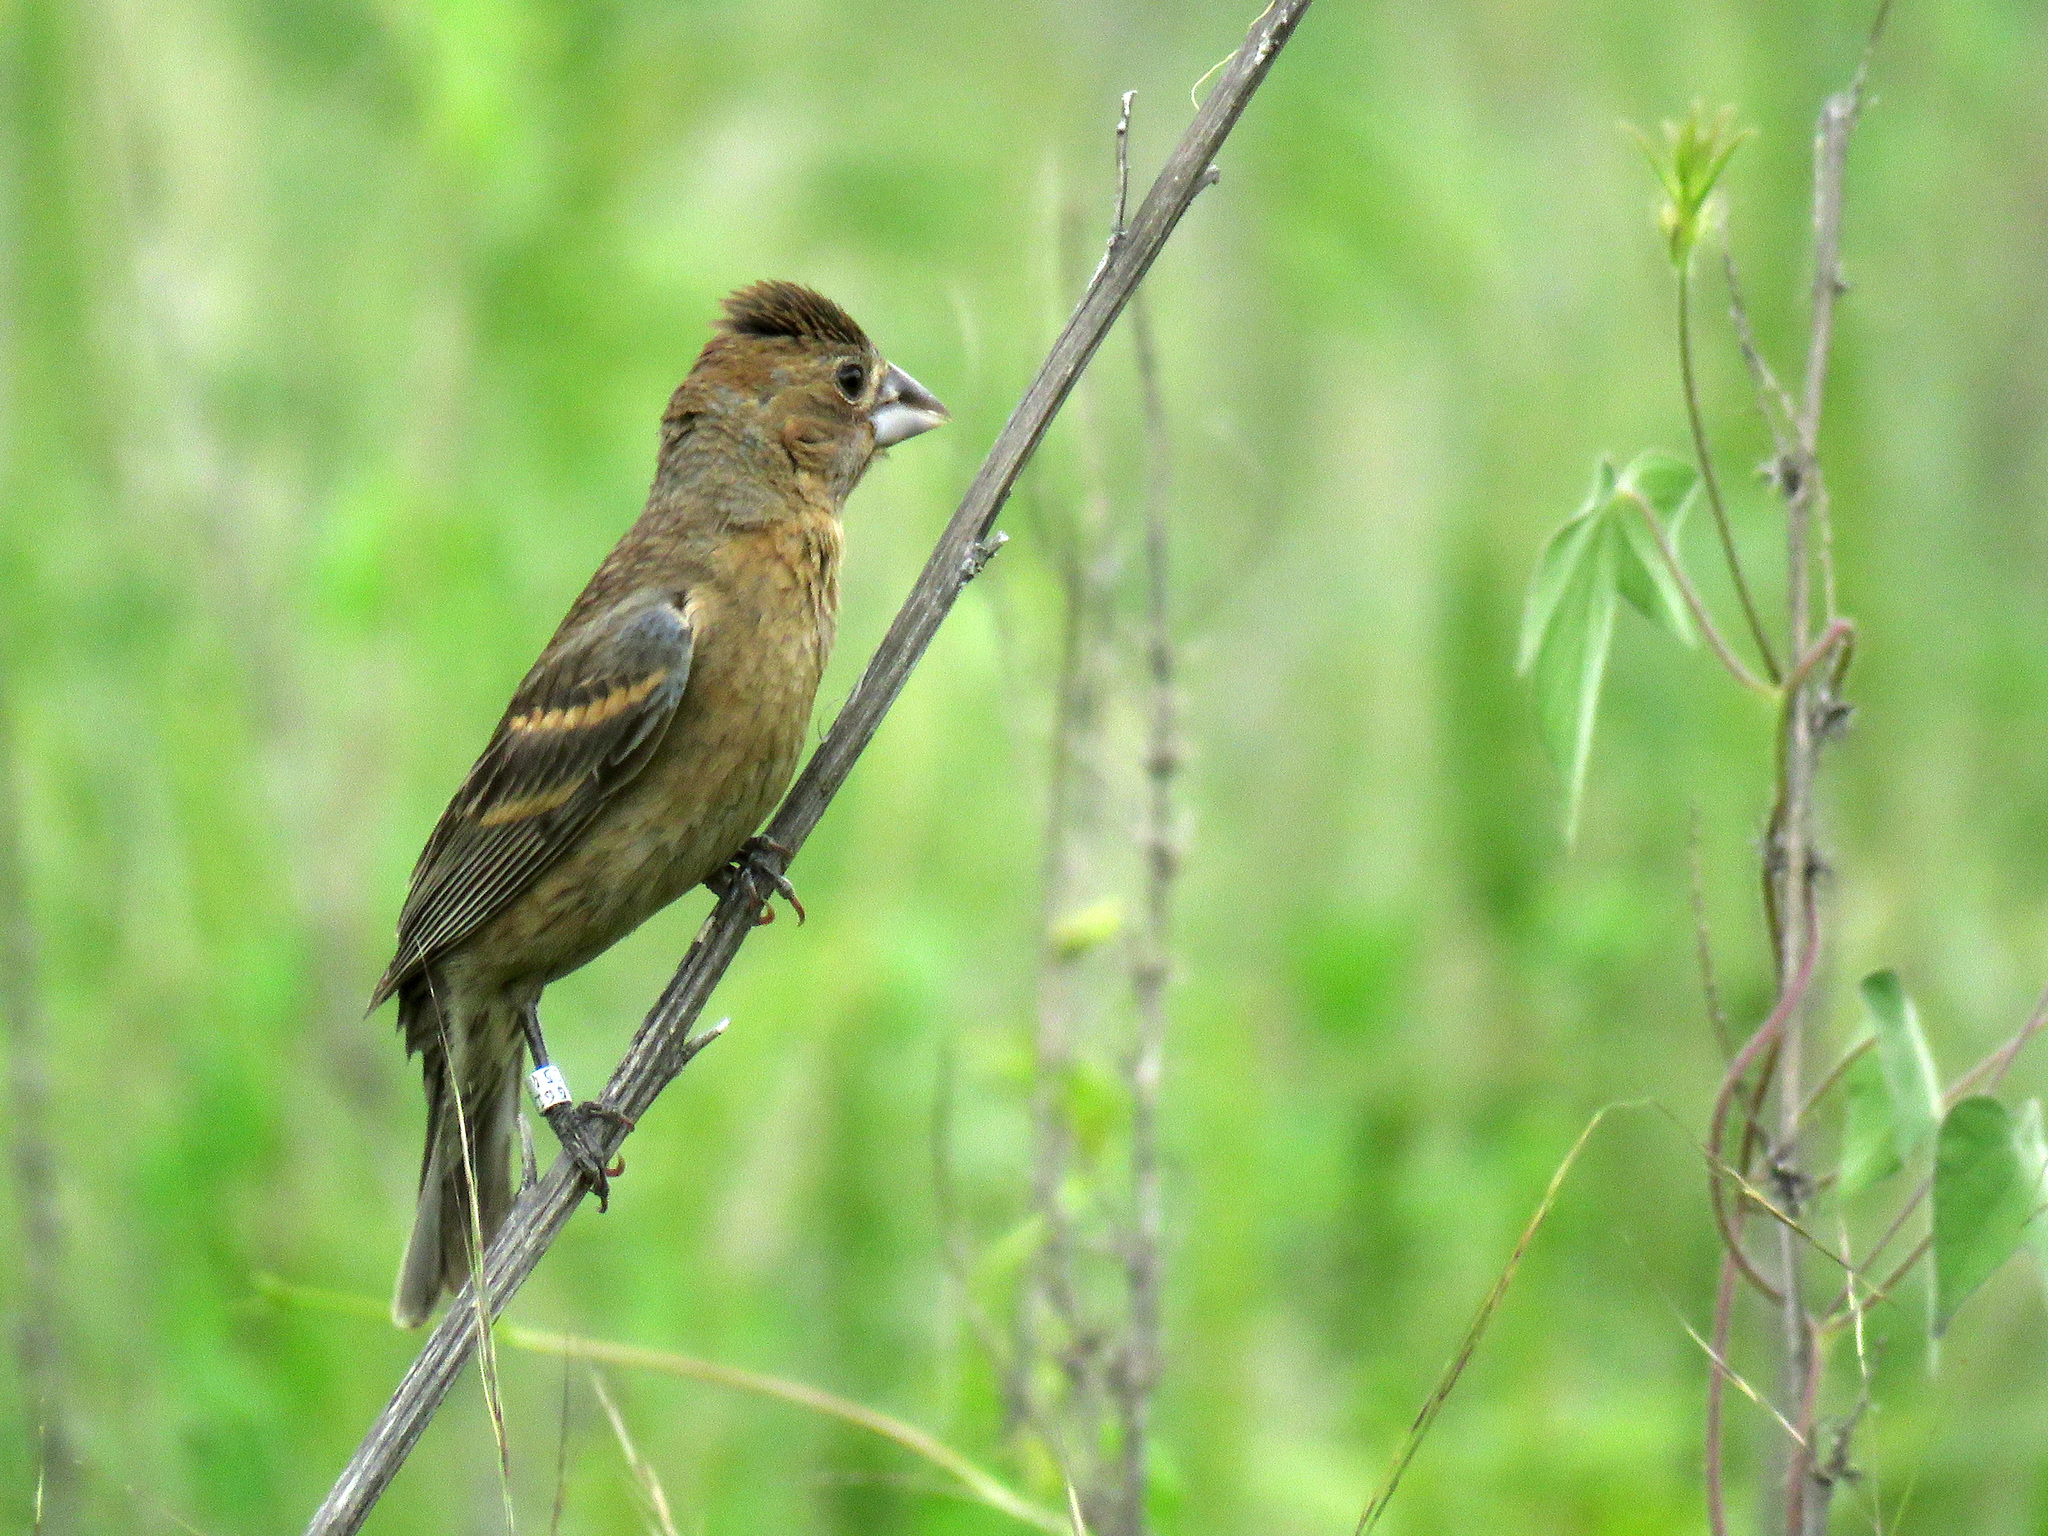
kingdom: Animalia
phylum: Chordata
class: Aves
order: Passeriformes
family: Cardinalidae
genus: Passerina
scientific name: Passerina caerulea
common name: Blue grosbeak
